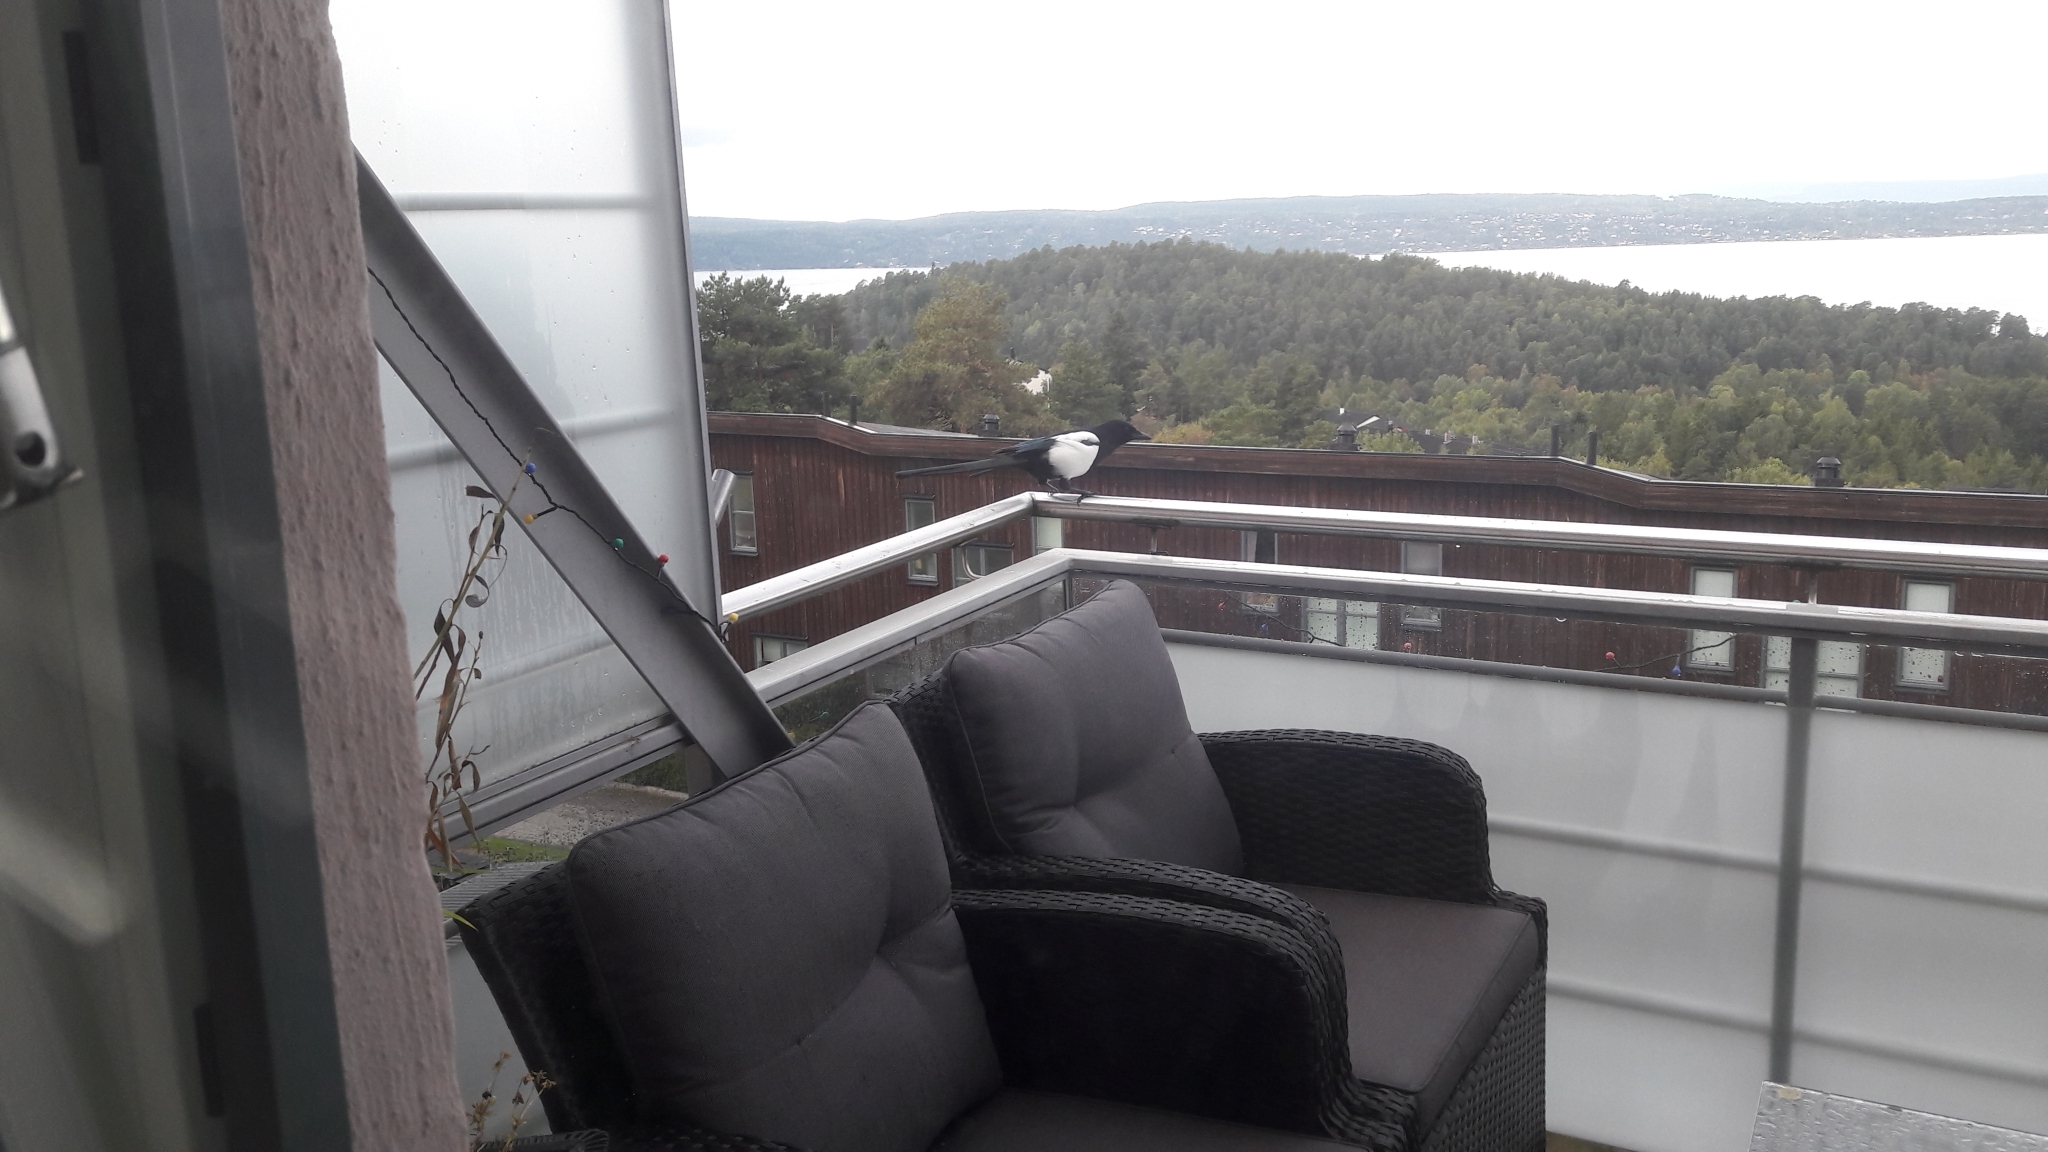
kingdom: Animalia
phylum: Chordata
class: Aves
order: Passeriformes
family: Corvidae
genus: Pica
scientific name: Pica pica
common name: Eurasian magpie
